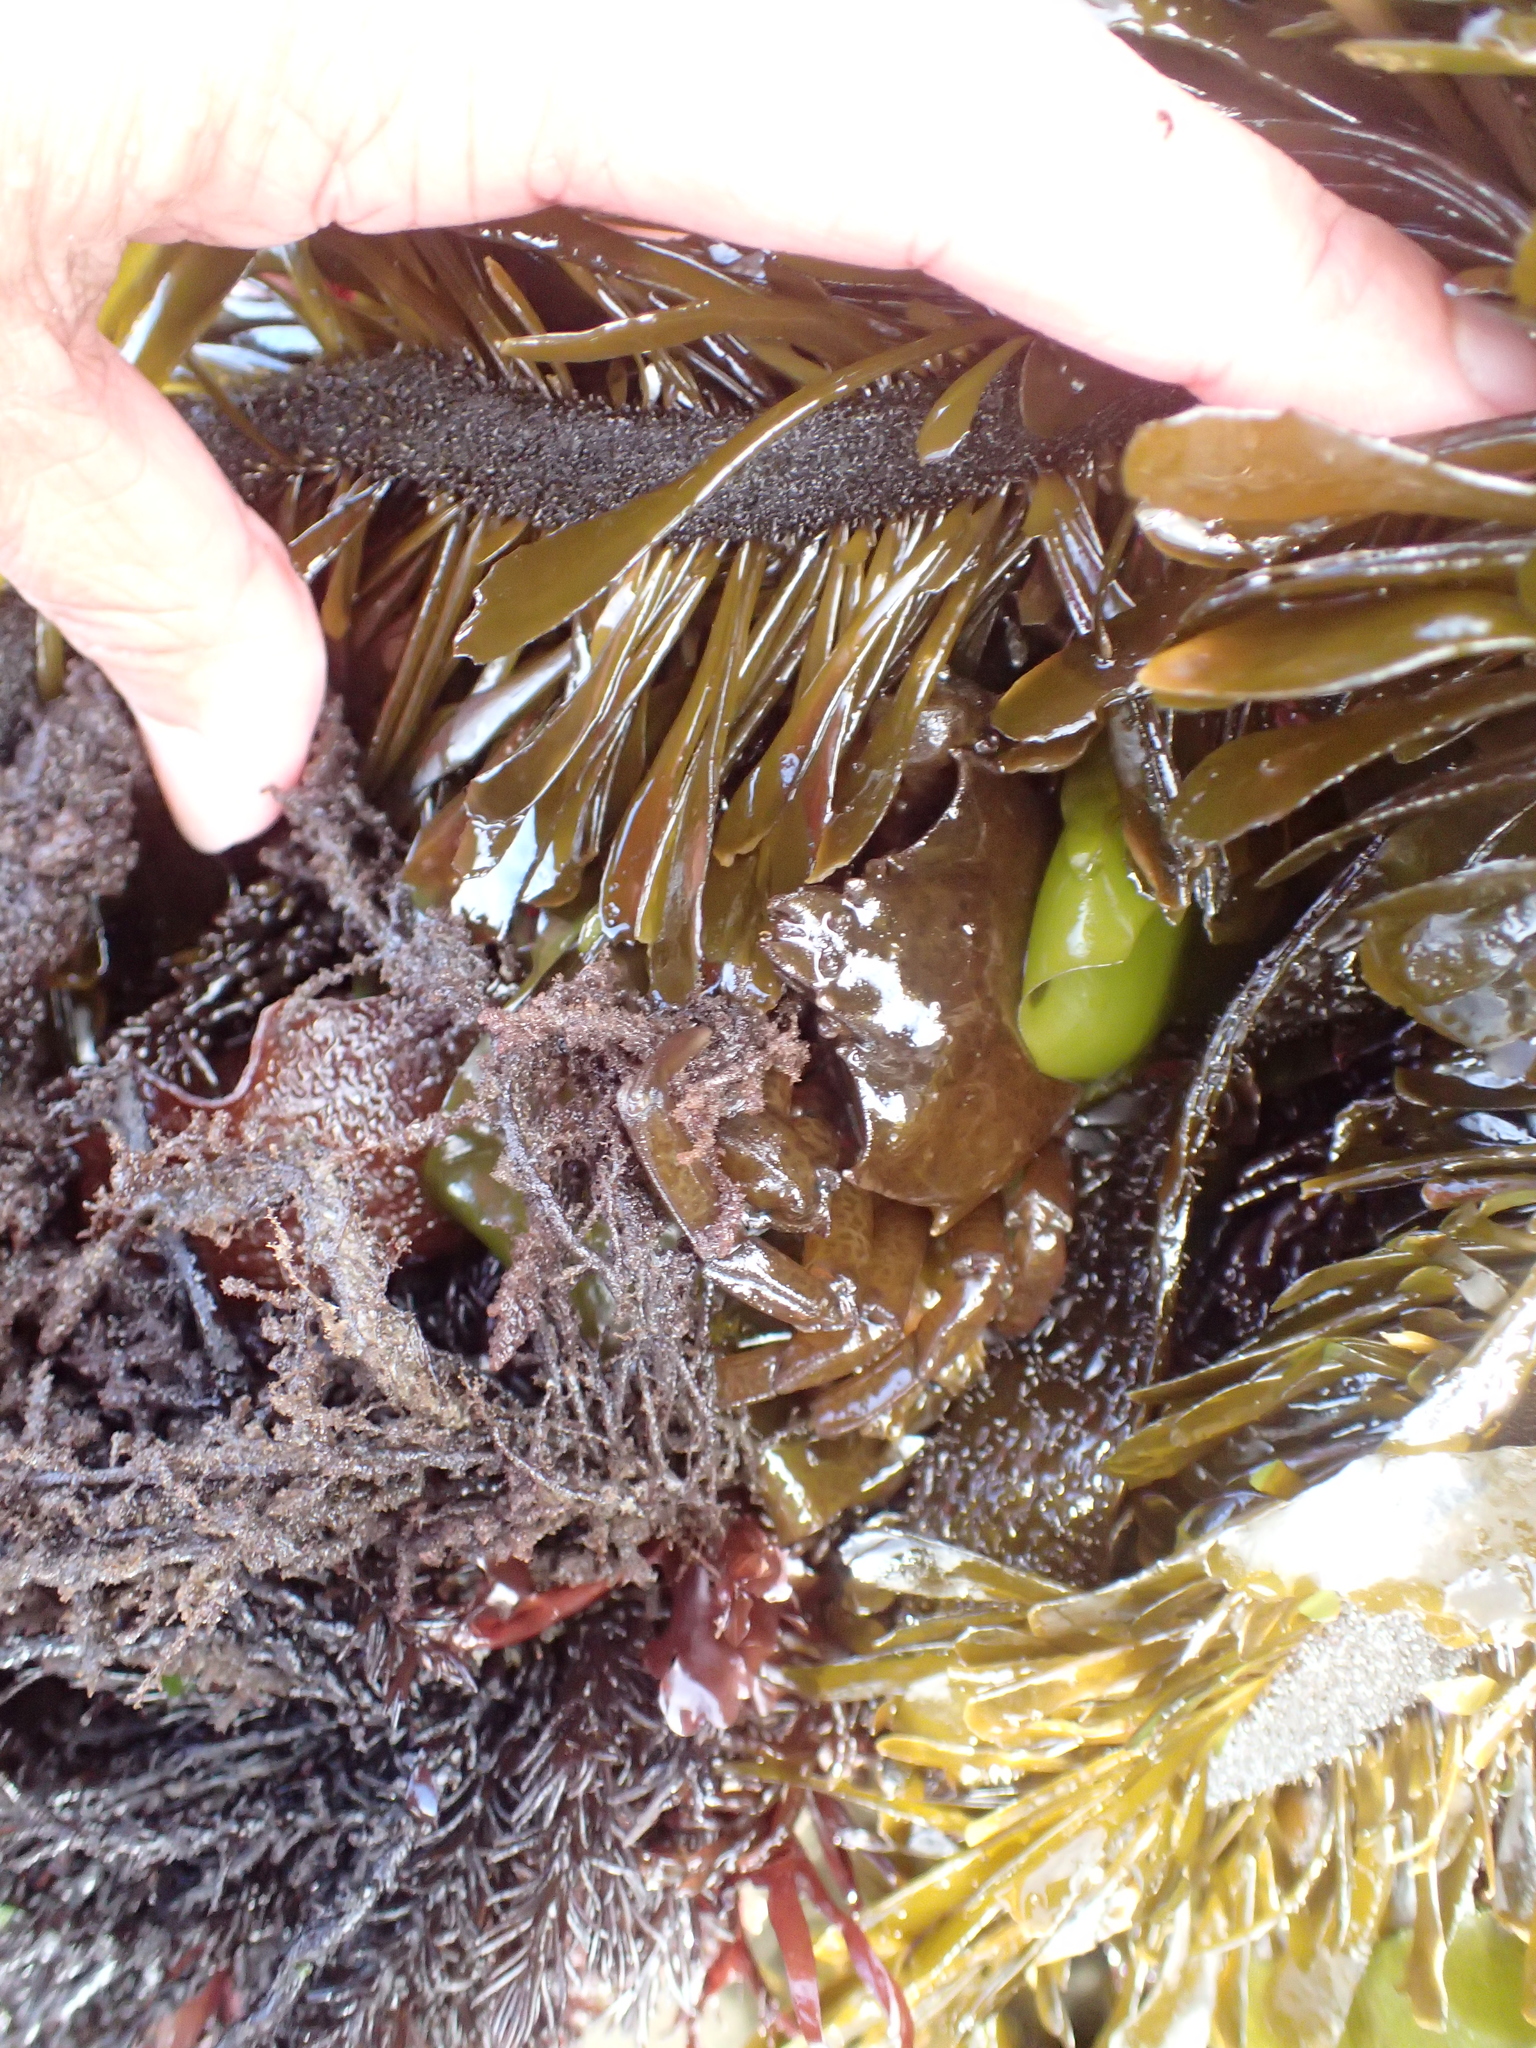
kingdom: Animalia
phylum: Arthropoda
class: Malacostraca
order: Decapoda
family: Epialtidae
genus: Pugettia
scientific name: Pugettia producta
